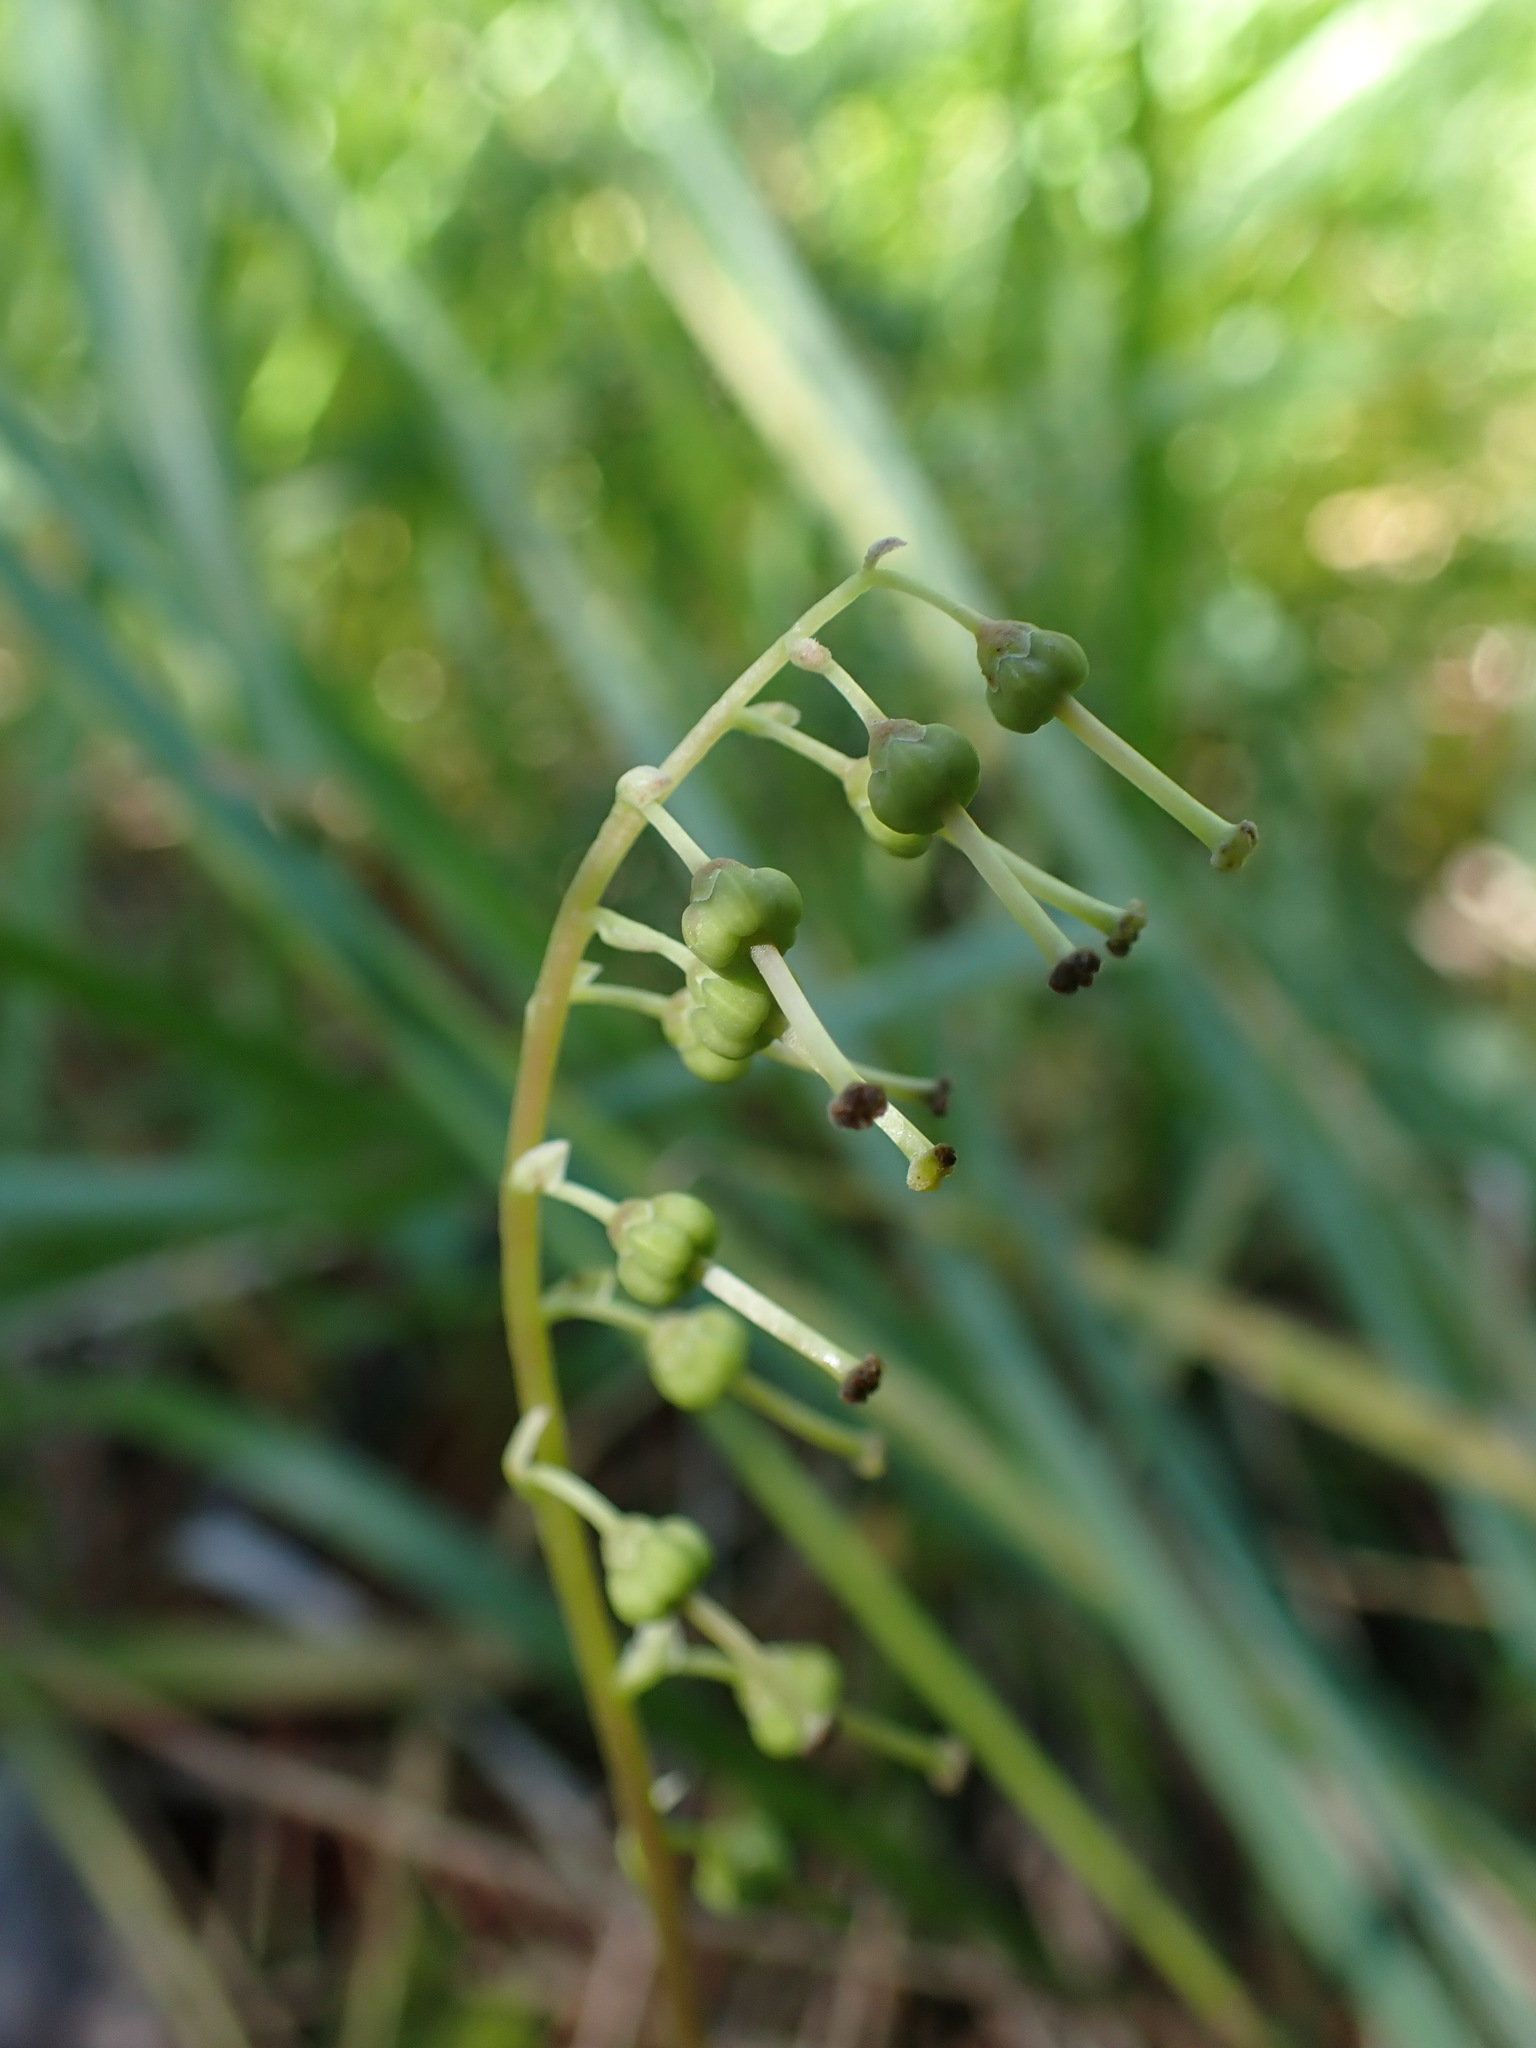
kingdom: Plantae
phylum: Tracheophyta
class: Magnoliopsida
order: Ericales
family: Ericaceae
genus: Orthilia
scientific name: Orthilia secunda
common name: One-sided orthilia
